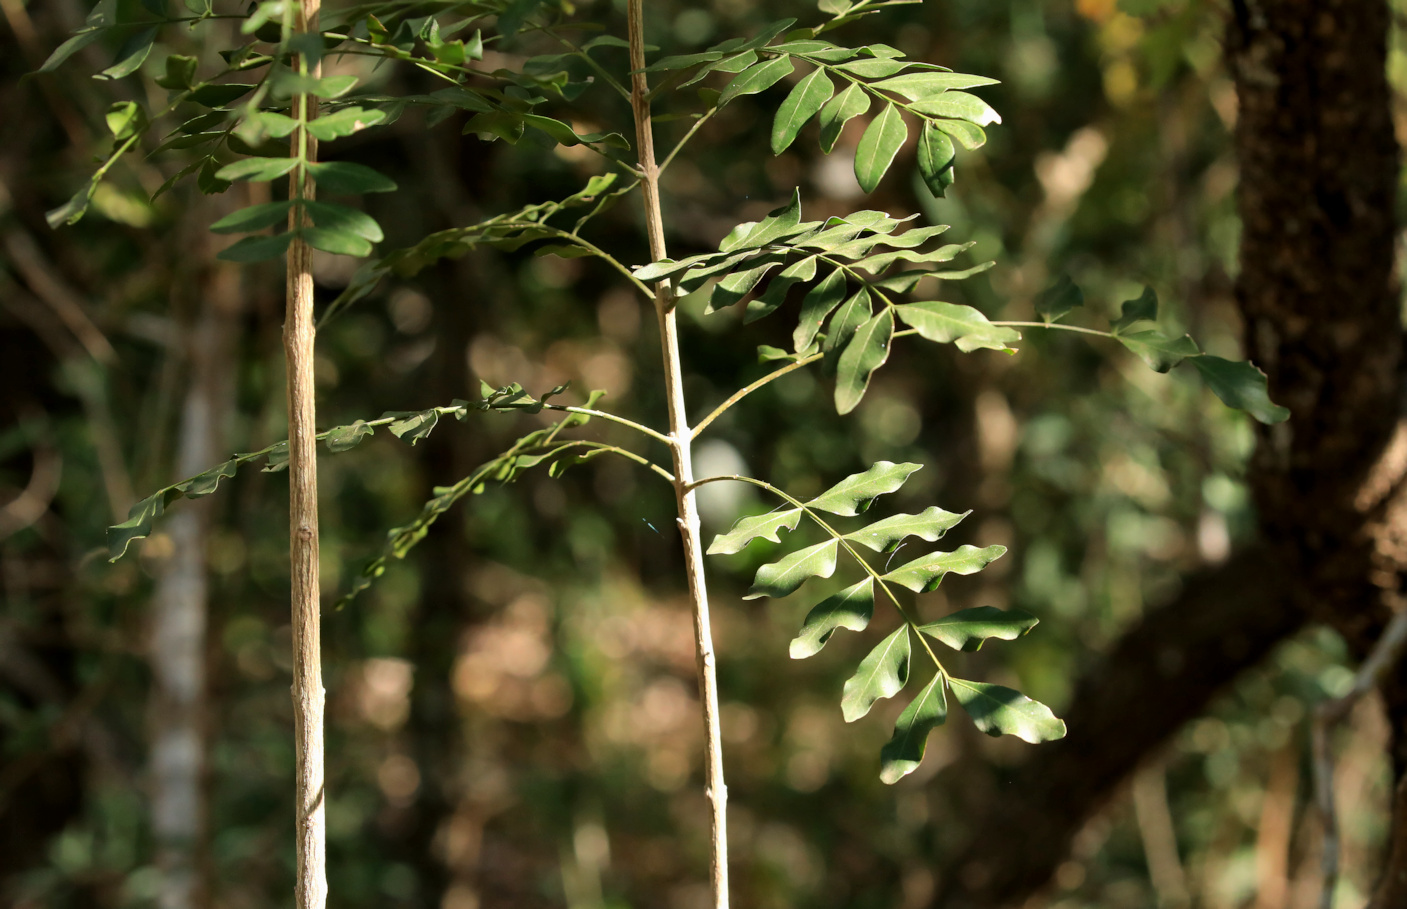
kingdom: Plantae
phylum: Tracheophyta
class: Magnoliopsida
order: Sapindales
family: Rutaceae
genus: Ptaeroxylon
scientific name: Ptaeroxylon obliquum
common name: Sneezewood
